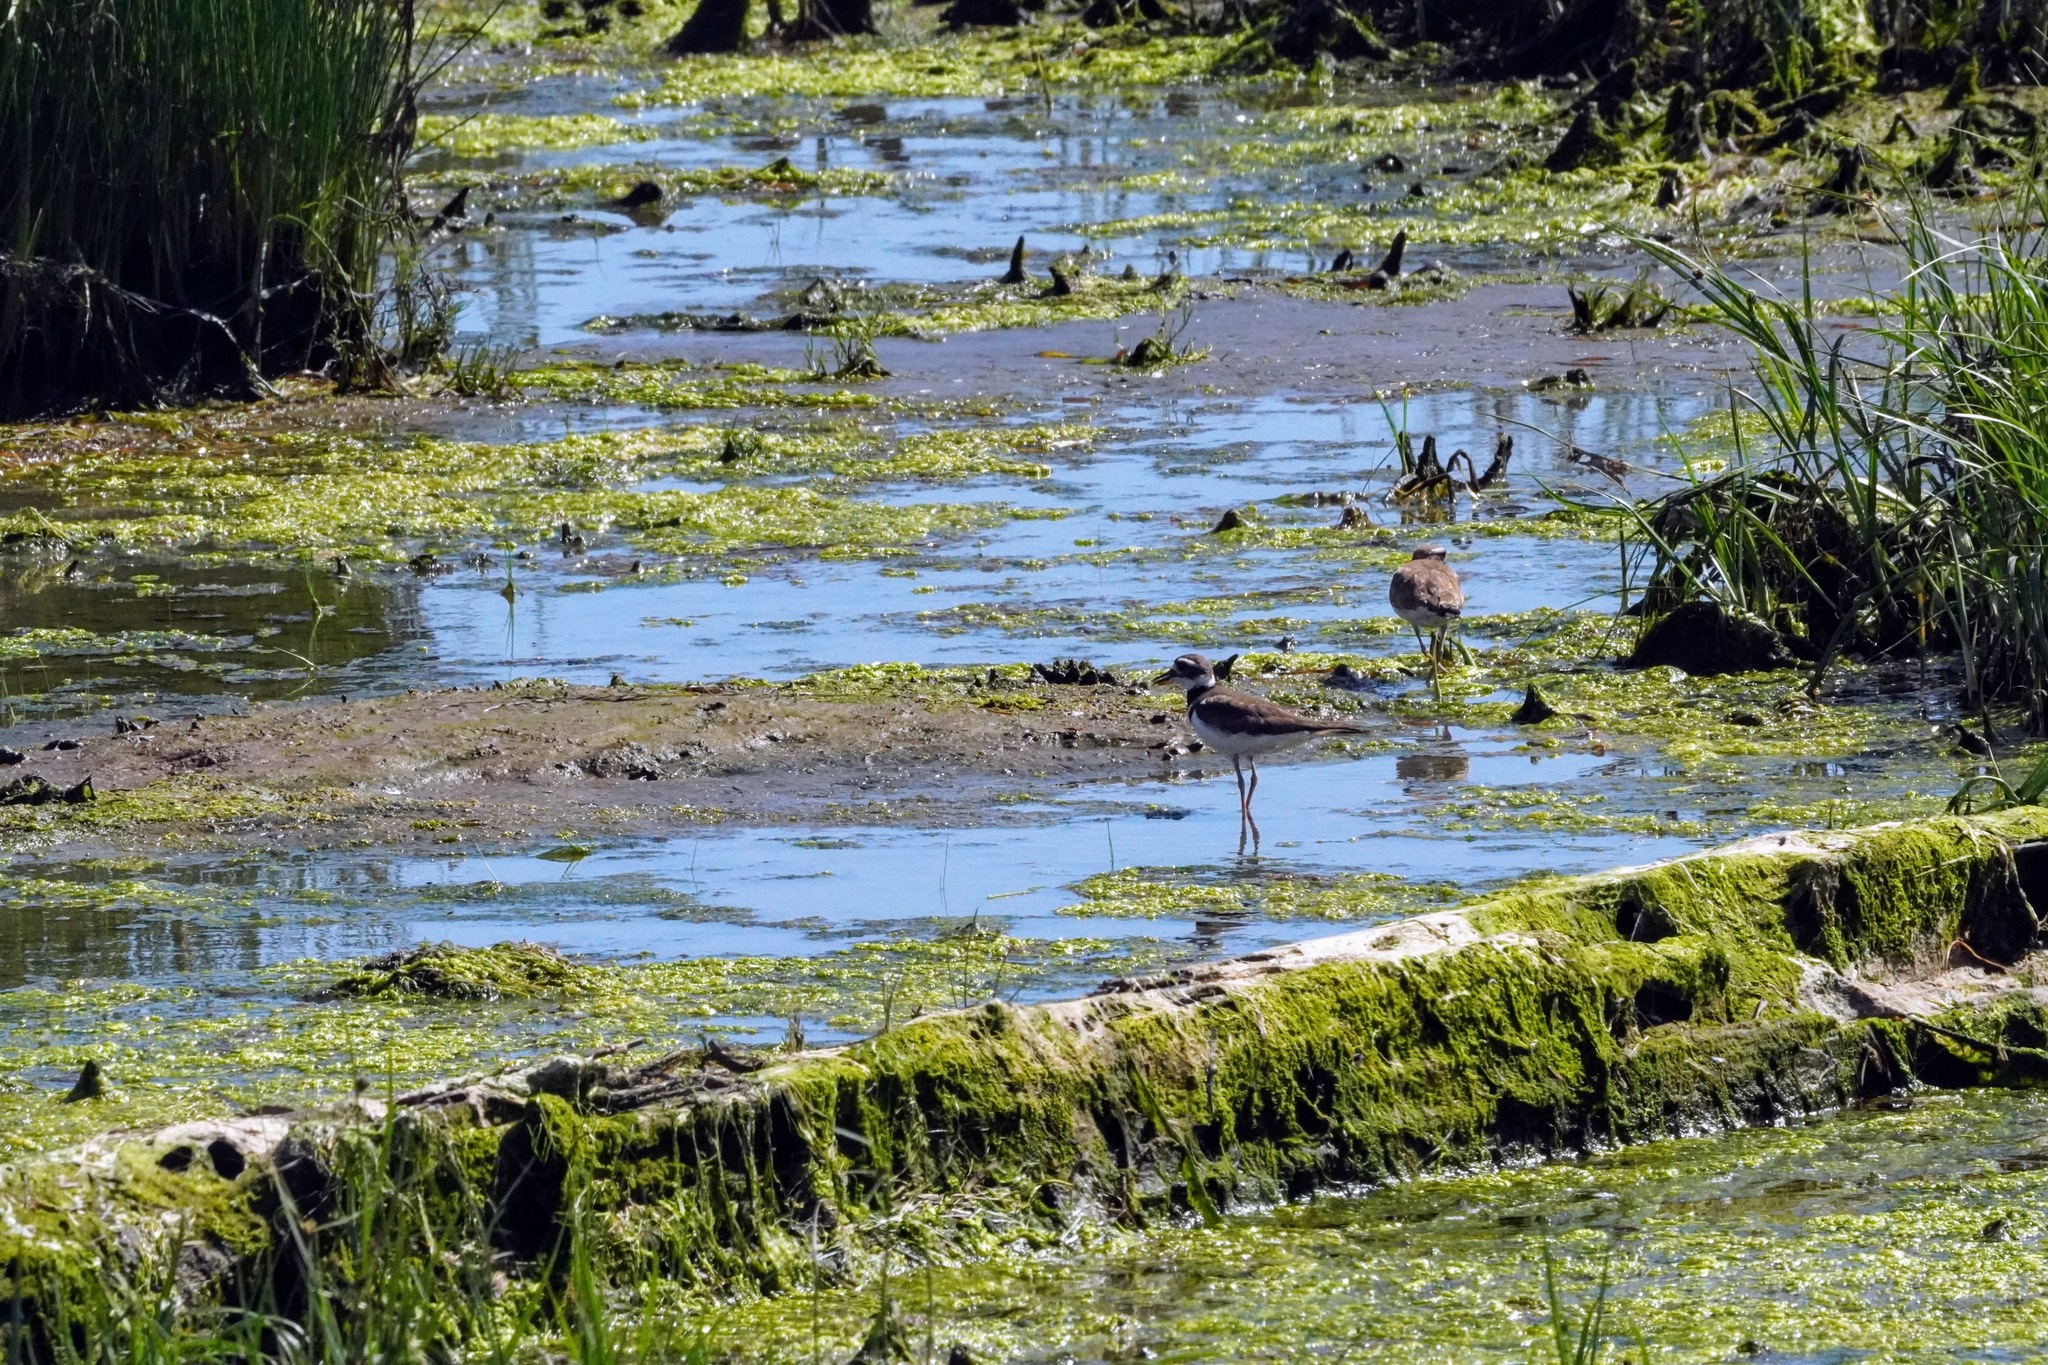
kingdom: Animalia
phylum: Chordata
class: Aves
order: Charadriiformes
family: Charadriidae
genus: Charadrius
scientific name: Charadrius vociferus
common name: Killdeer
